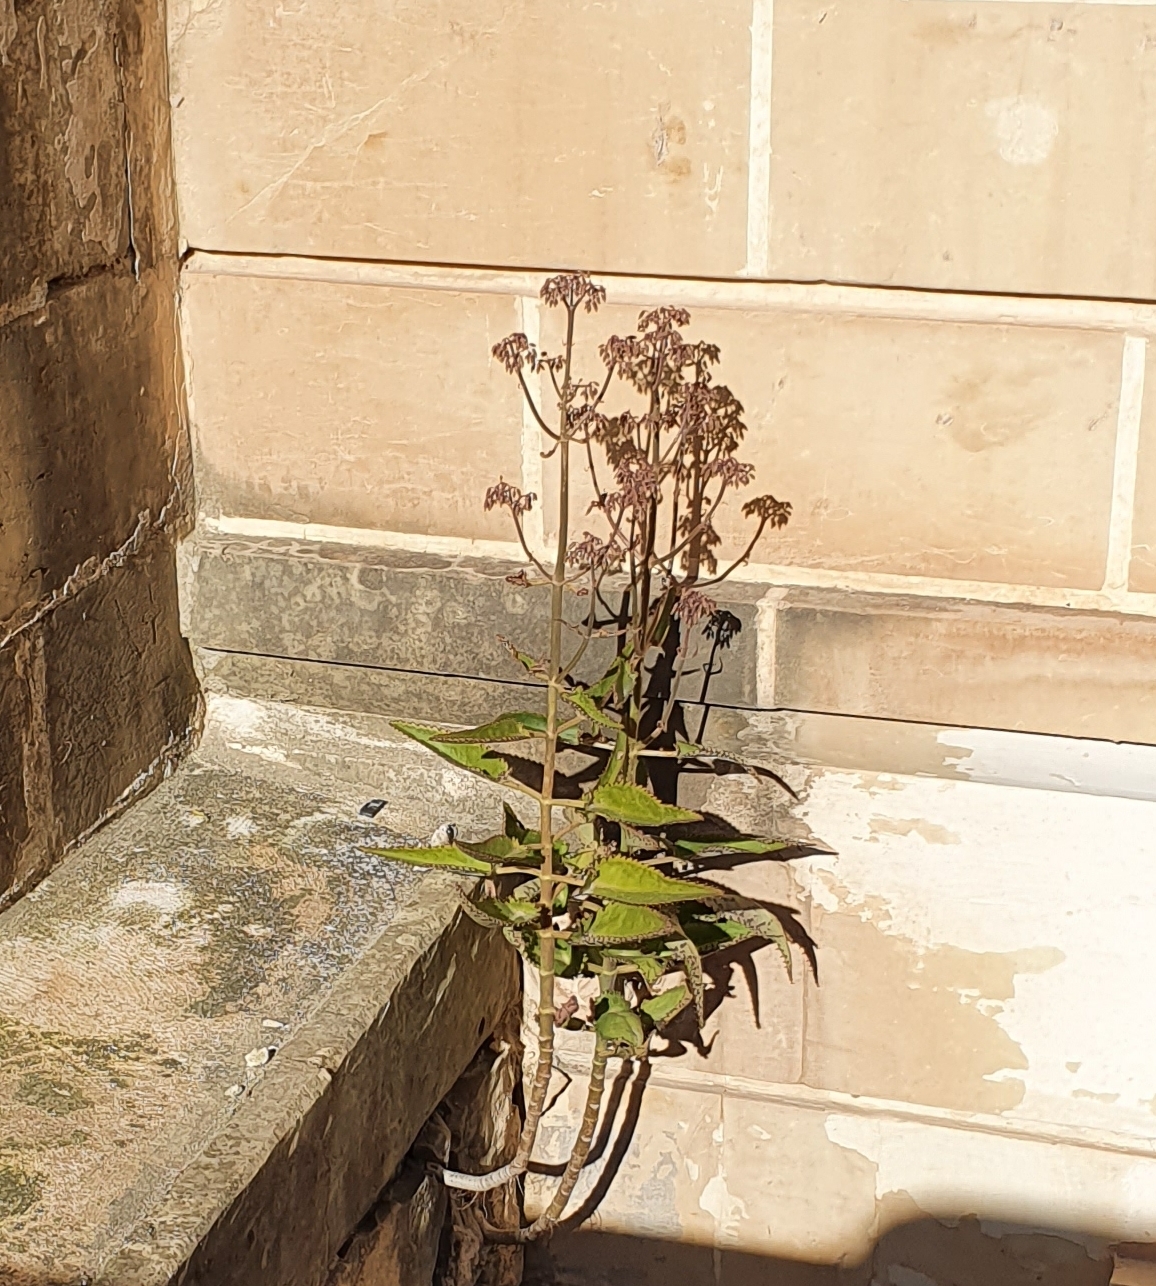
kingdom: Plantae
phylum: Tracheophyta
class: Magnoliopsida
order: Saxifragales
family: Crassulaceae
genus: Kalanchoe
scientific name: Kalanchoe daigremontiana
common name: Devil's backbone
